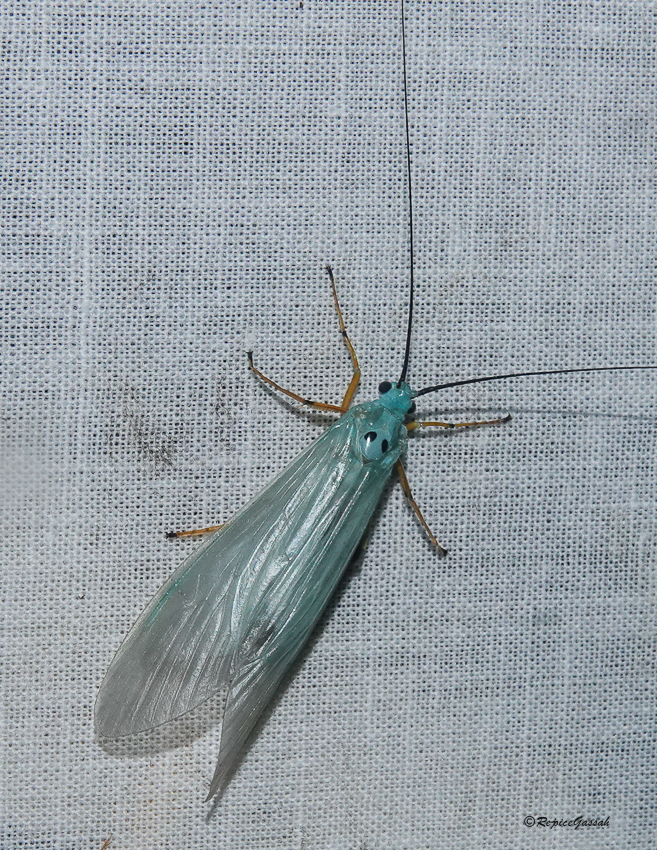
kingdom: Animalia
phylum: Arthropoda
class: Insecta
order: Trichoptera
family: Hydropsychidae
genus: Polymorphanisus
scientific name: Polymorphanisus nigricornis
